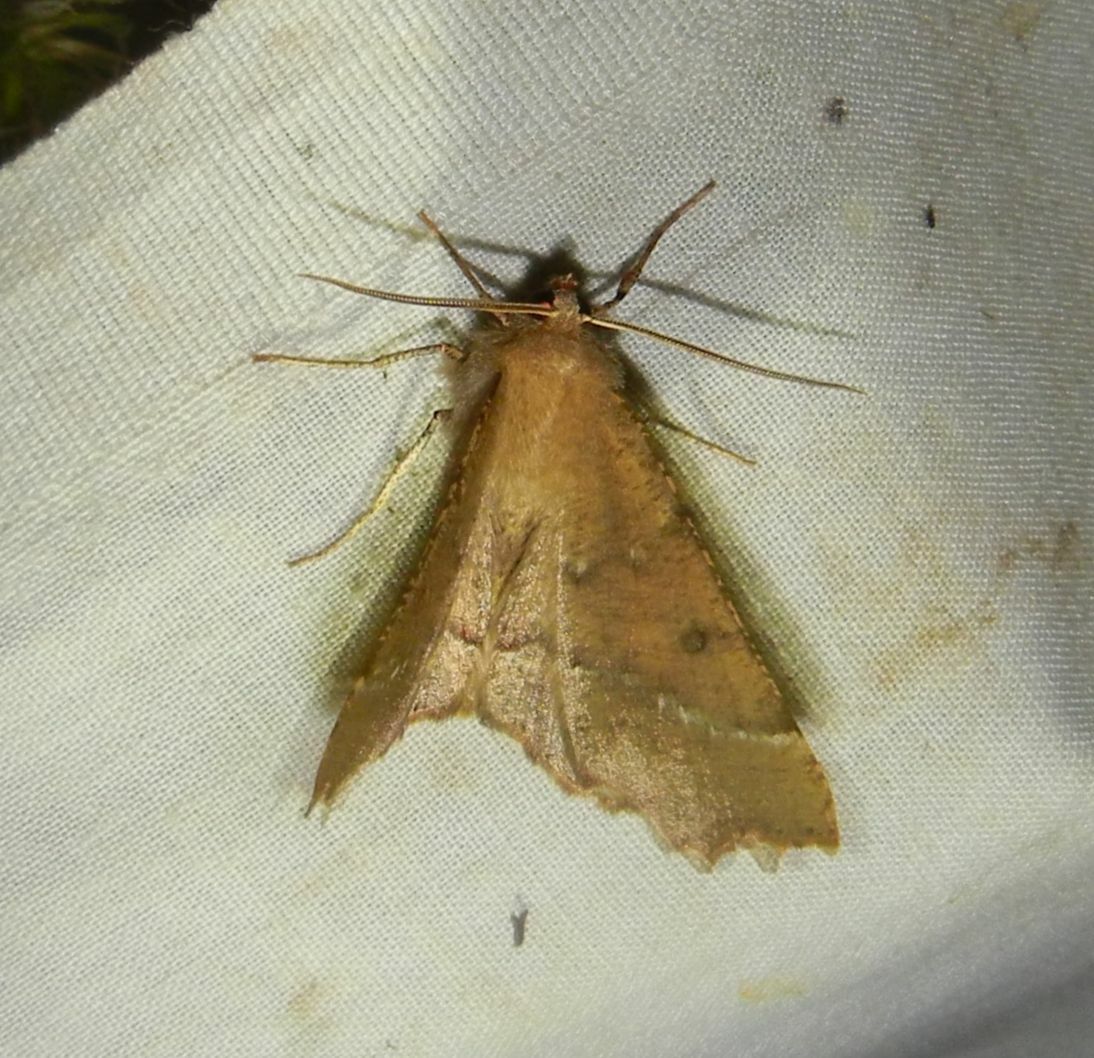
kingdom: Animalia
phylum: Arthropoda
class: Insecta
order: Lepidoptera
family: Geometridae
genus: Odontopera
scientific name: Odontopera bidentata
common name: Scalloped hazel
